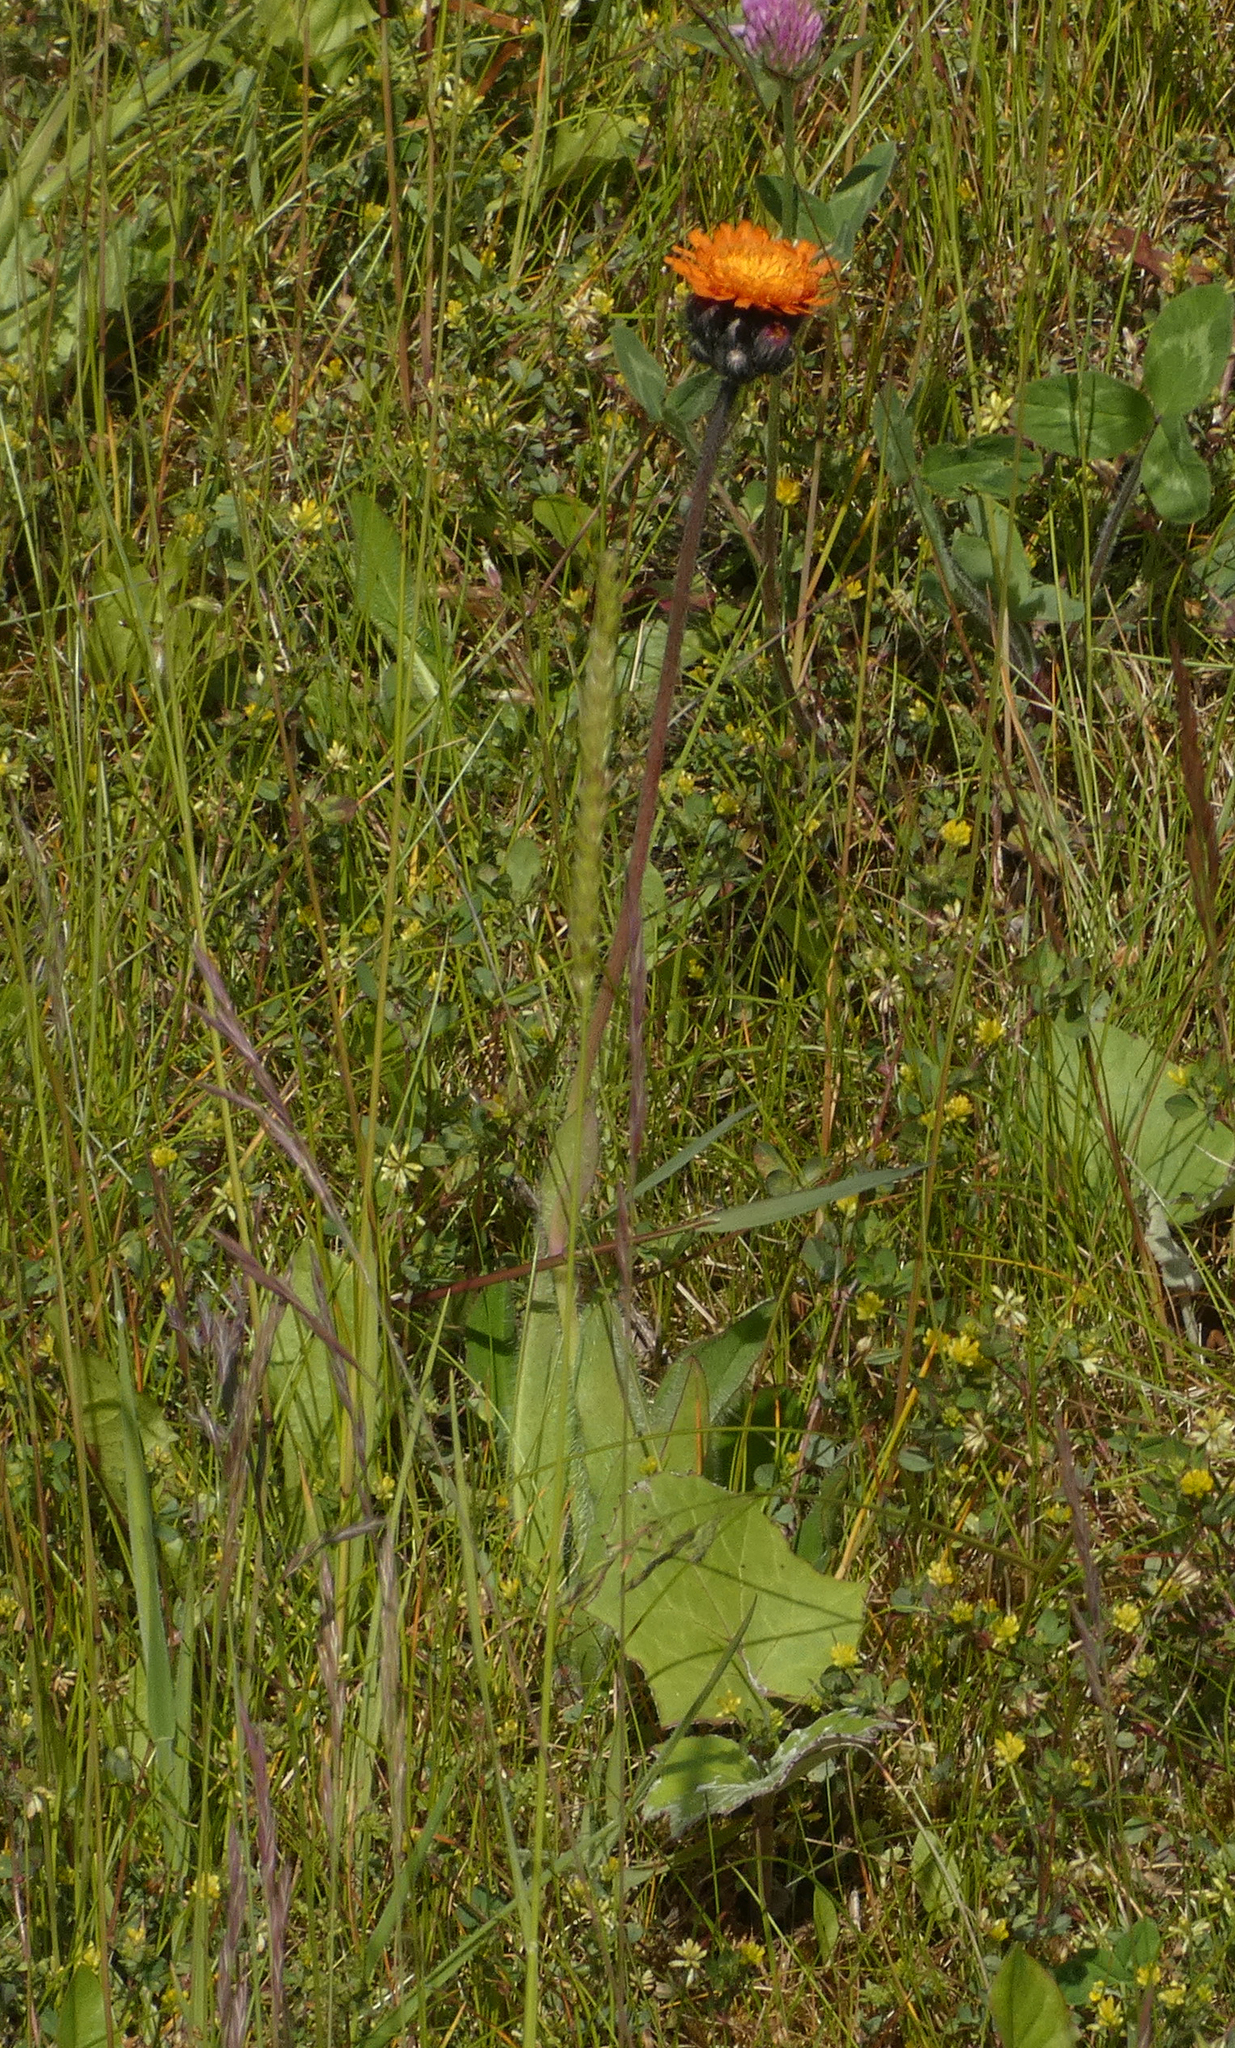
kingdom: Plantae
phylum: Tracheophyta
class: Magnoliopsida
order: Asterales
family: Asteraceae
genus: Pilosella
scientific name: Pilosella aurantiaca
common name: Fox-and-cubs
